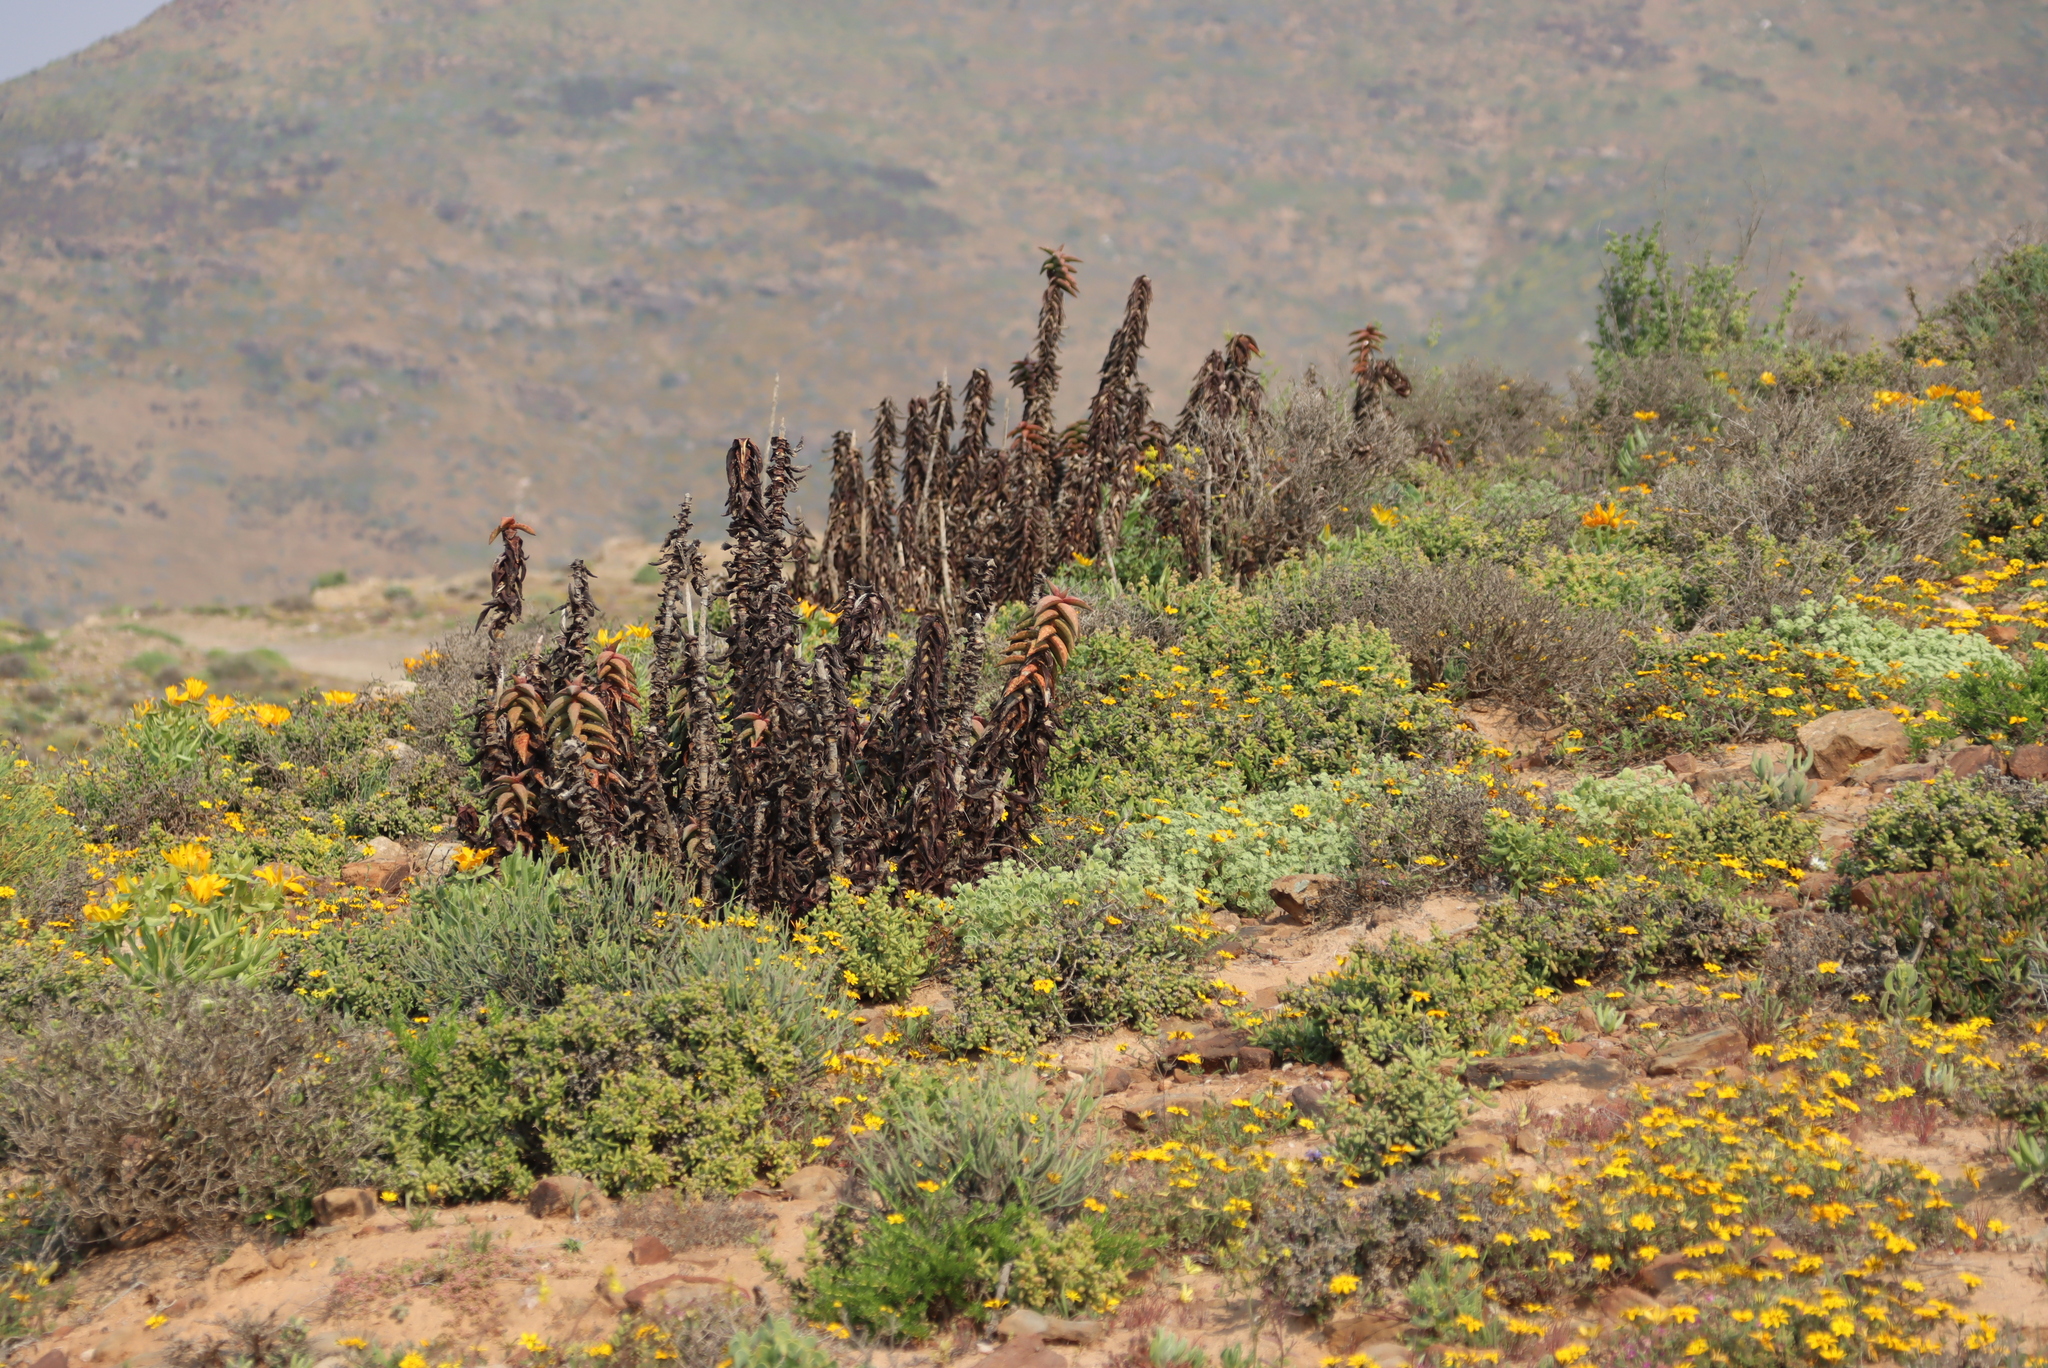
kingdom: Plantae
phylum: Tracheophyta
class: Liliopsida
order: Asparagales
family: Asphodelaceae
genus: Aloe
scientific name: Aloe pearsonii
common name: Pearson's aloe
